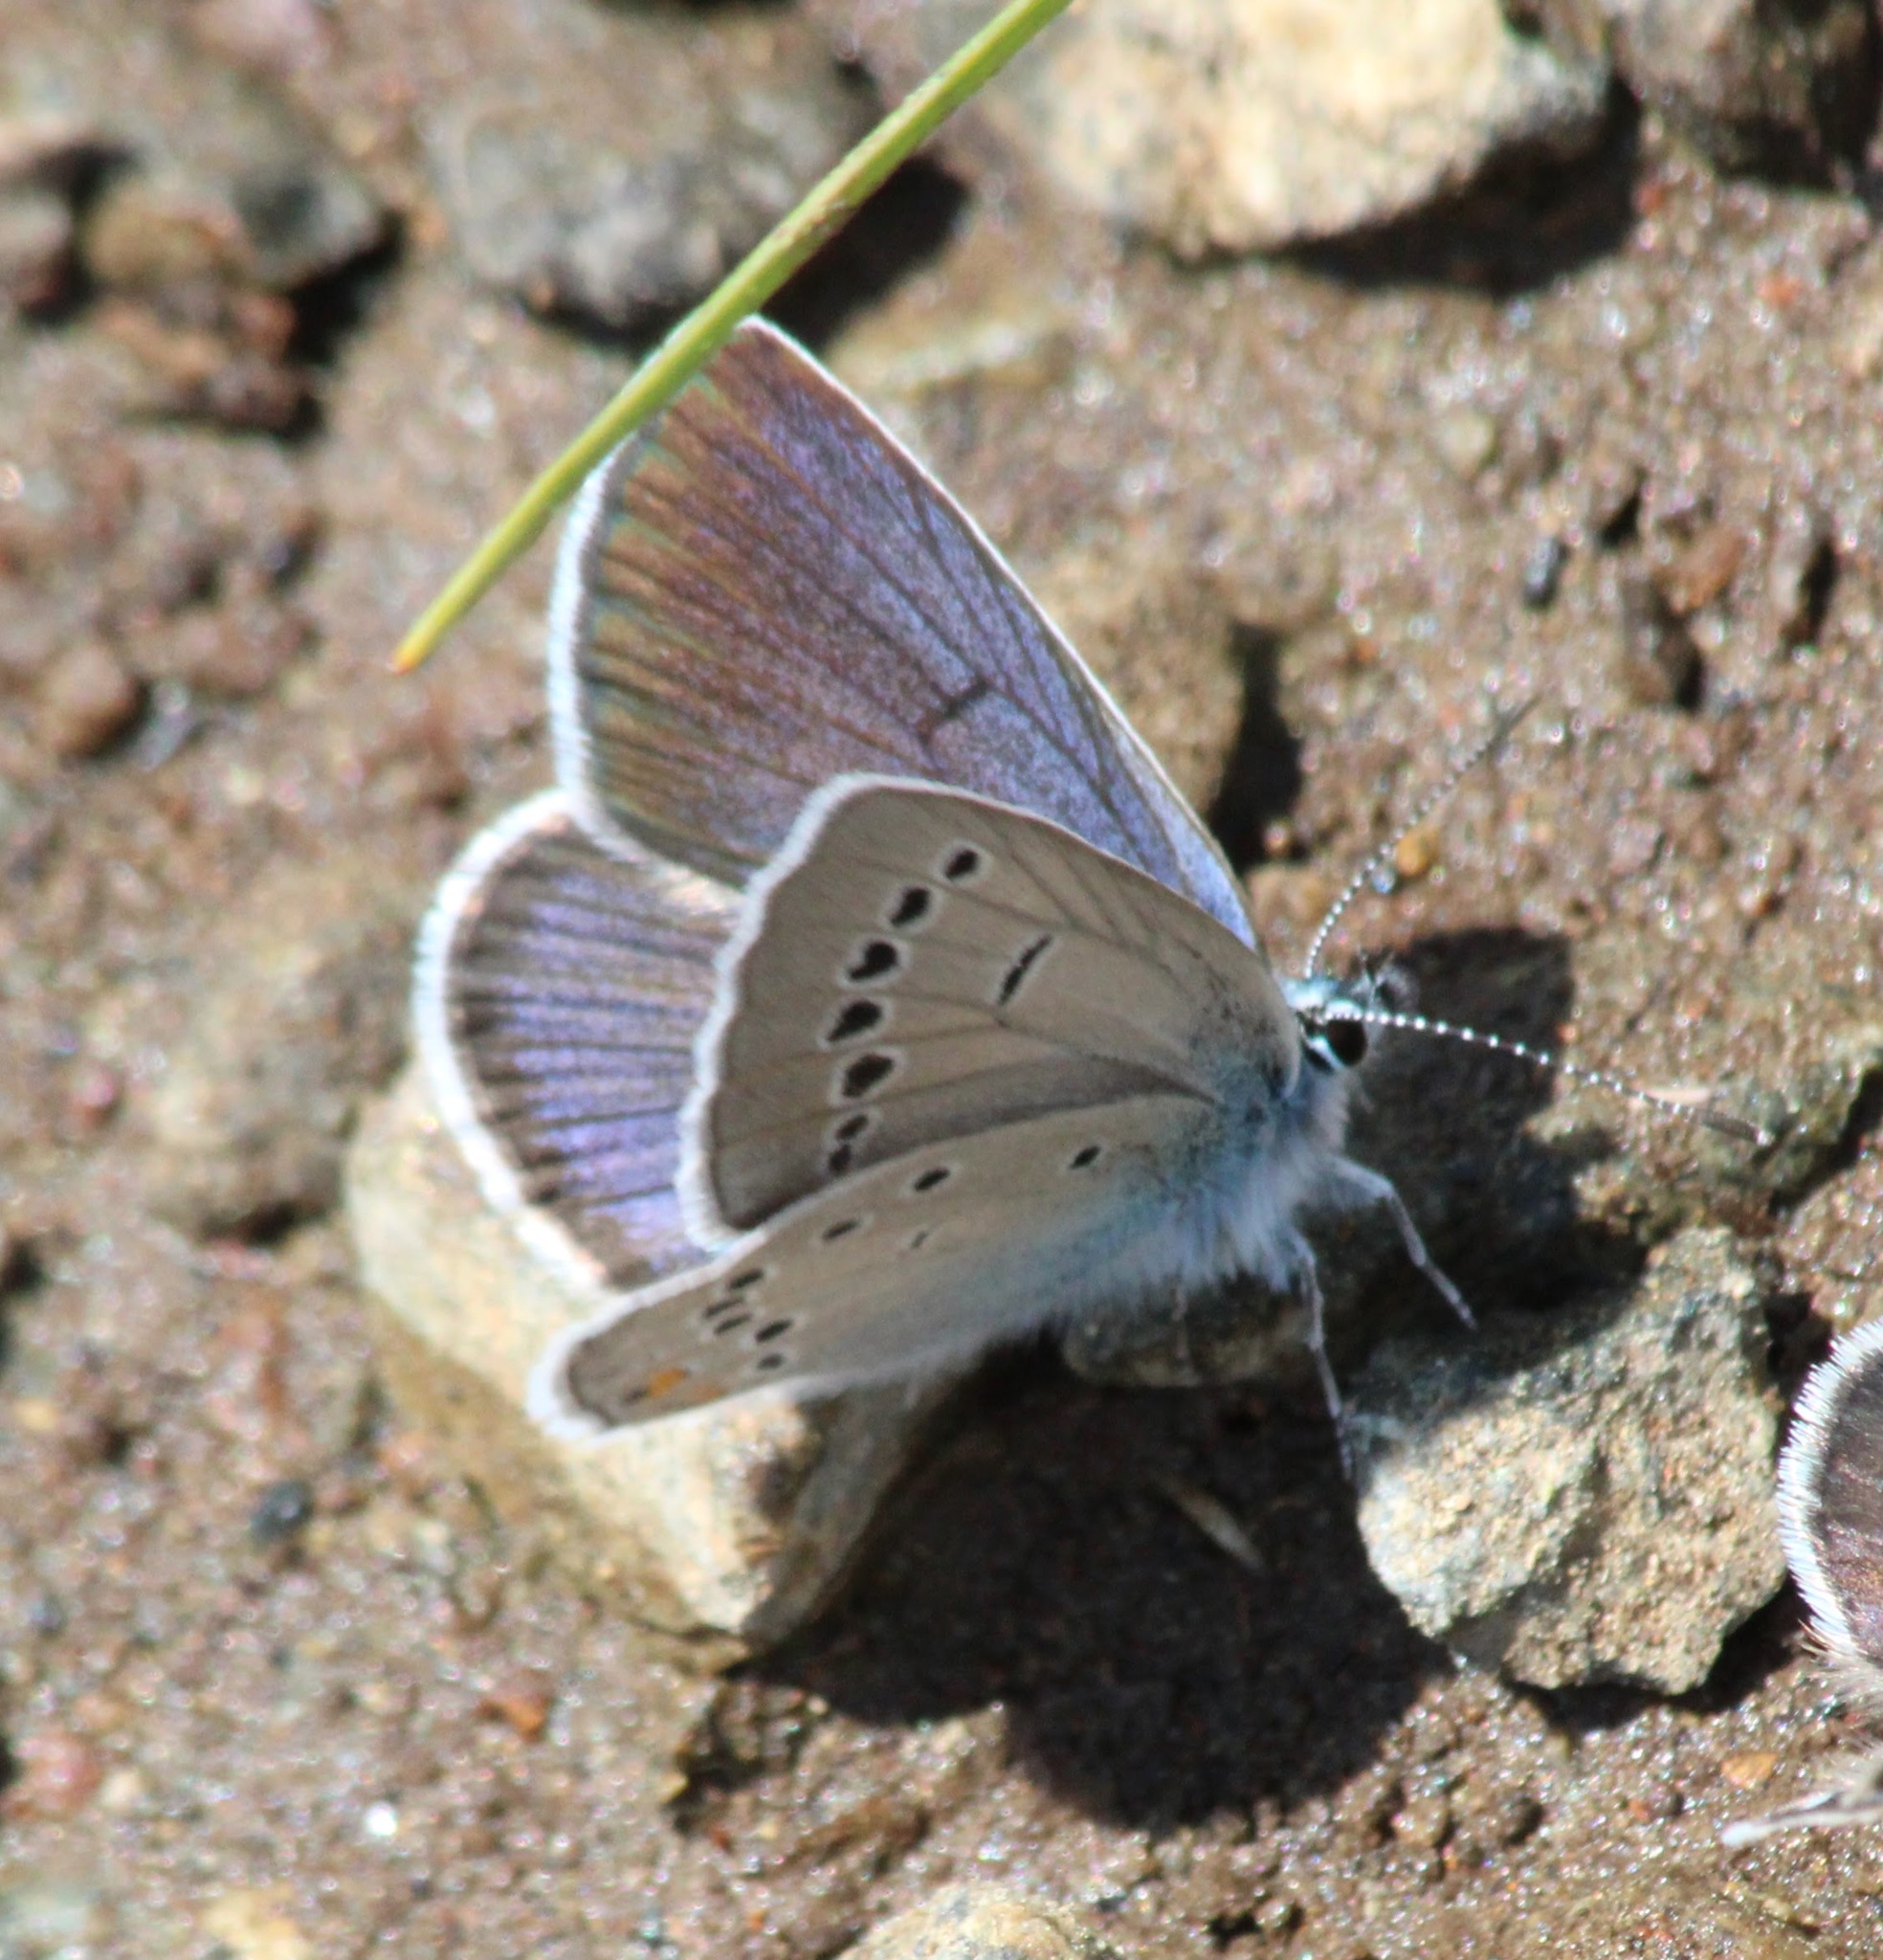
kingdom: Animalia
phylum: Arthropoda
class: Insecta
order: Lepidoptera
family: Lycaenidae
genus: Cyaniris
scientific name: Cyaniris semiargus
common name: Mazarine blue
